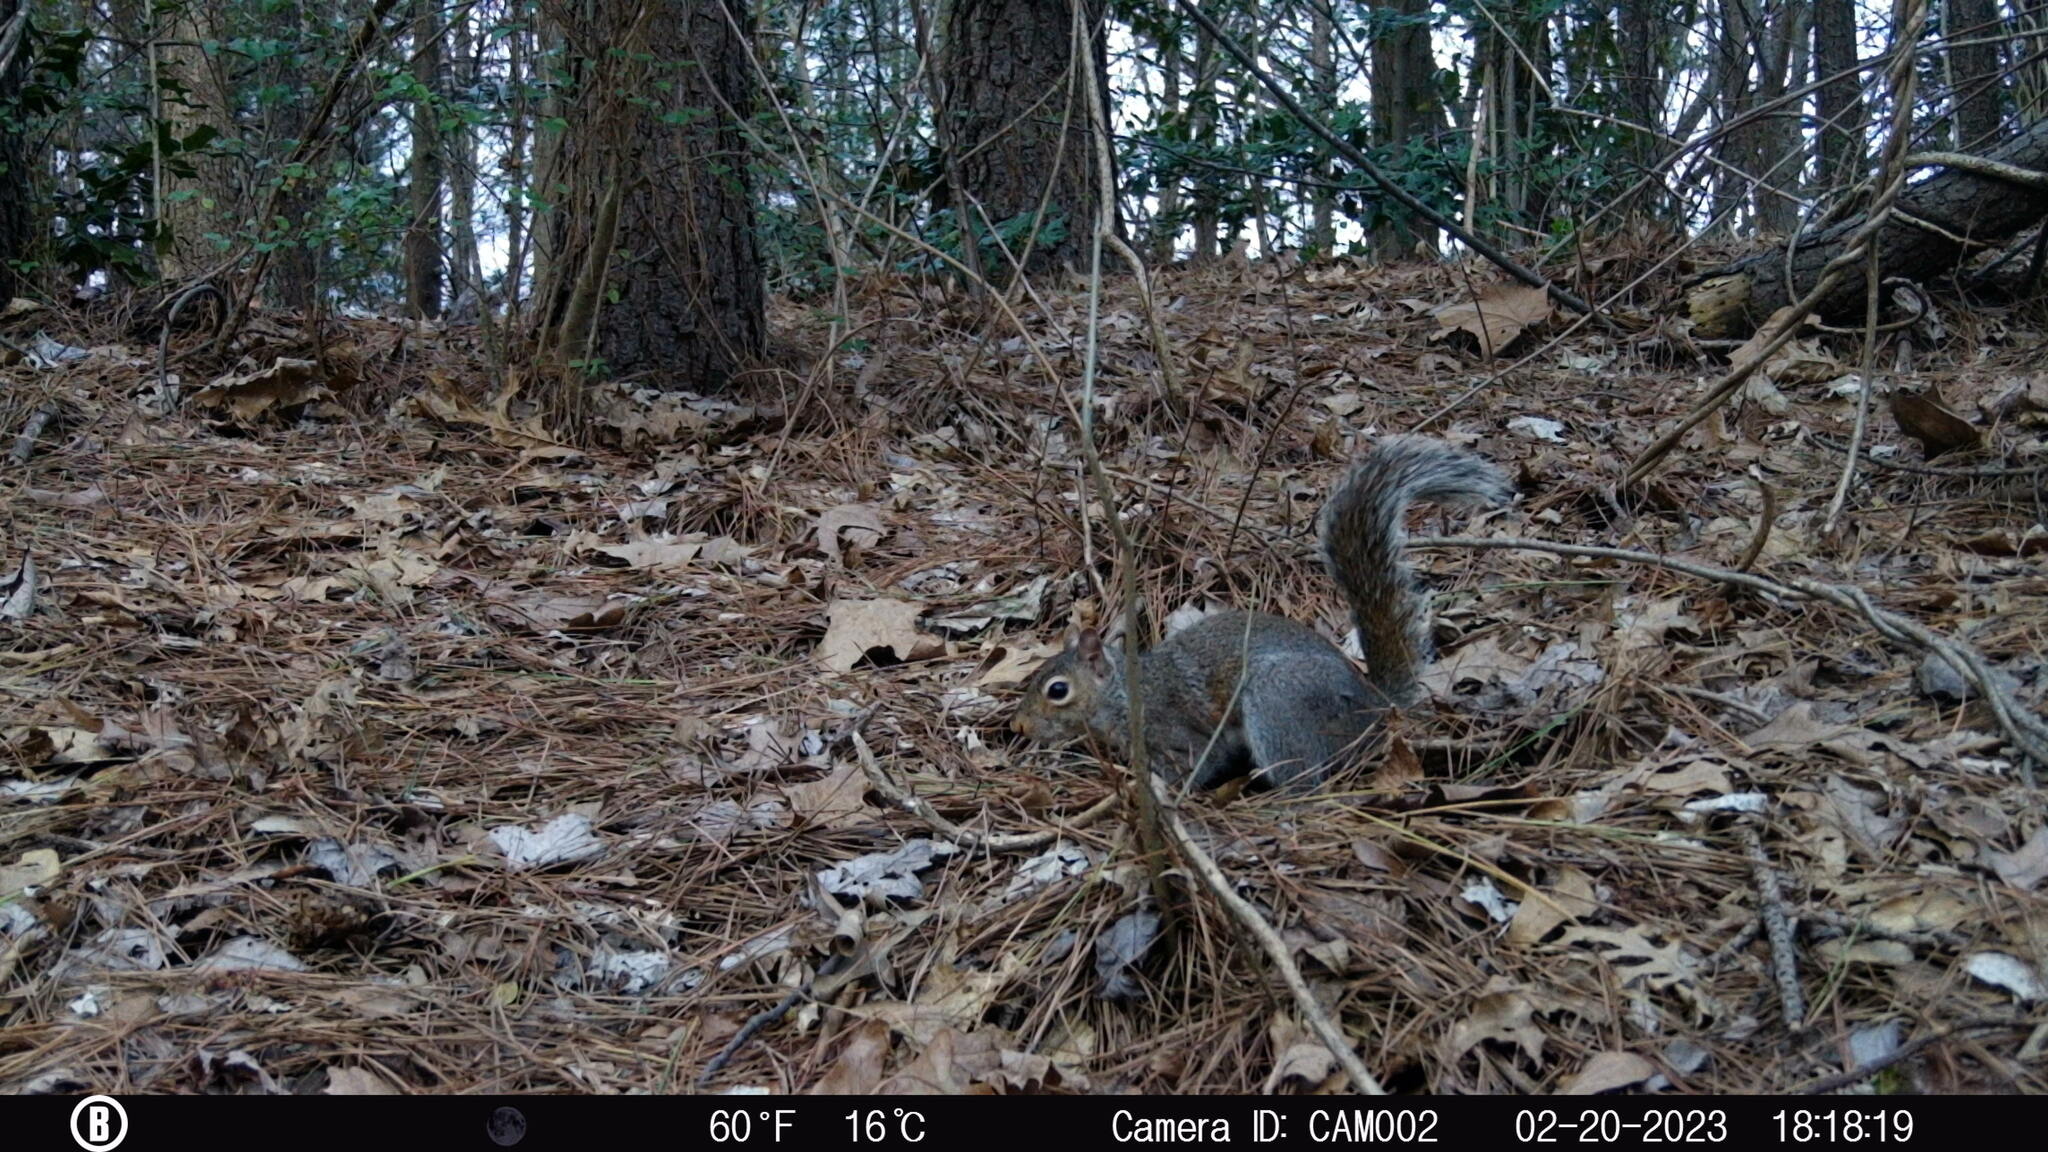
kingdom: Animalia
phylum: Chordata
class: Mammalia
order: Rodentia
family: Sciuridae
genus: Sciurus
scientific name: Sciurus carolinensis
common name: Eastern gray squirrel
